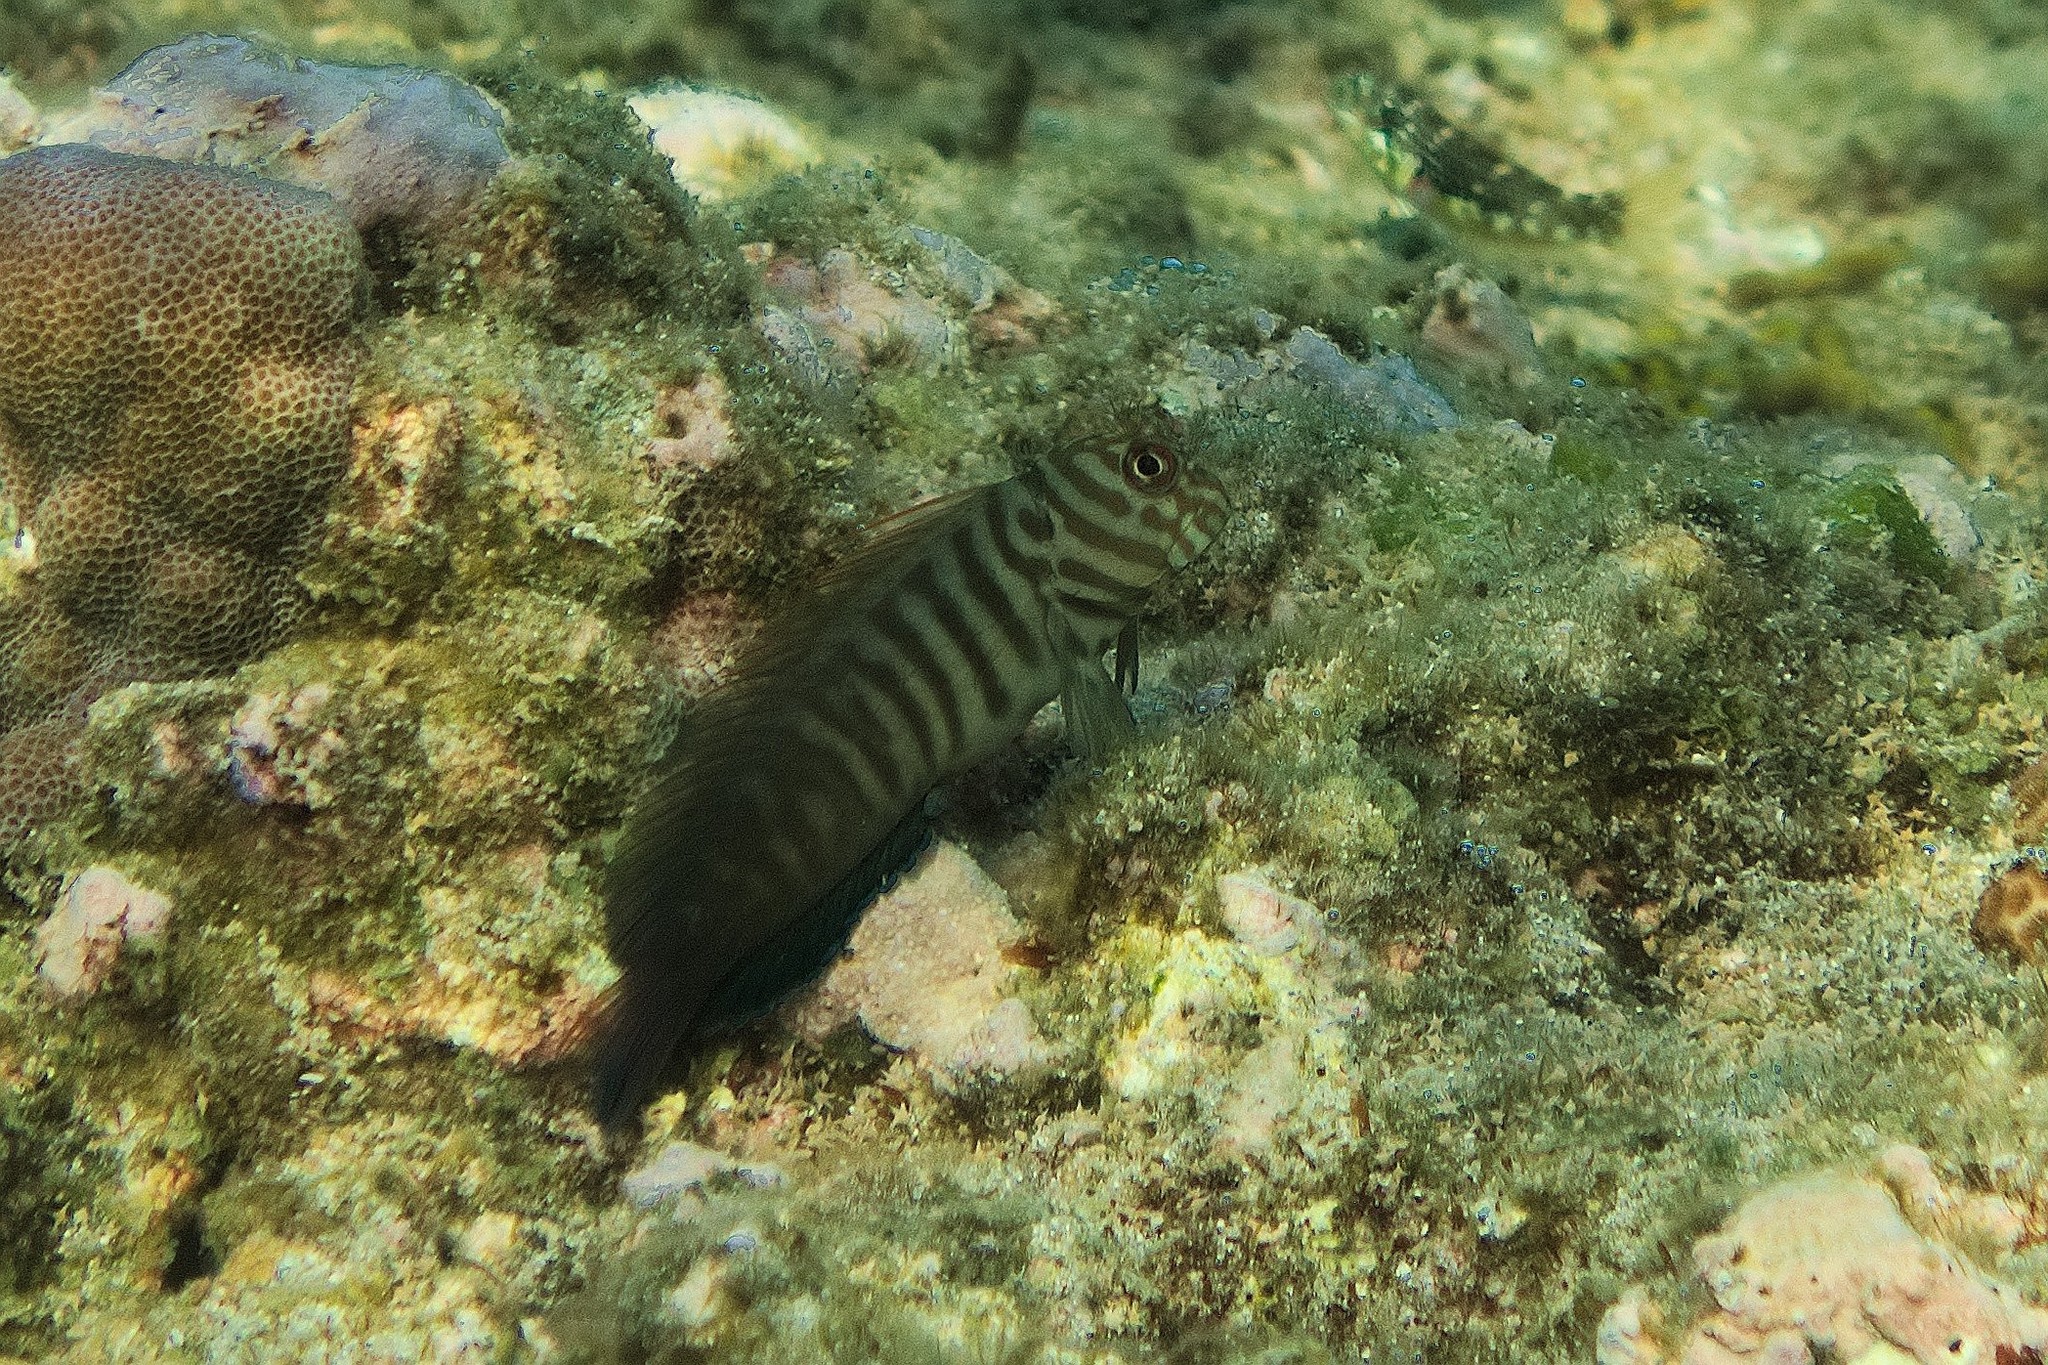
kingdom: Animalia
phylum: Chordata
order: Perciformes
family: Blenniidae
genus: Cirripectes
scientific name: Cirripectes castaneus
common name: Chestnut blenny
